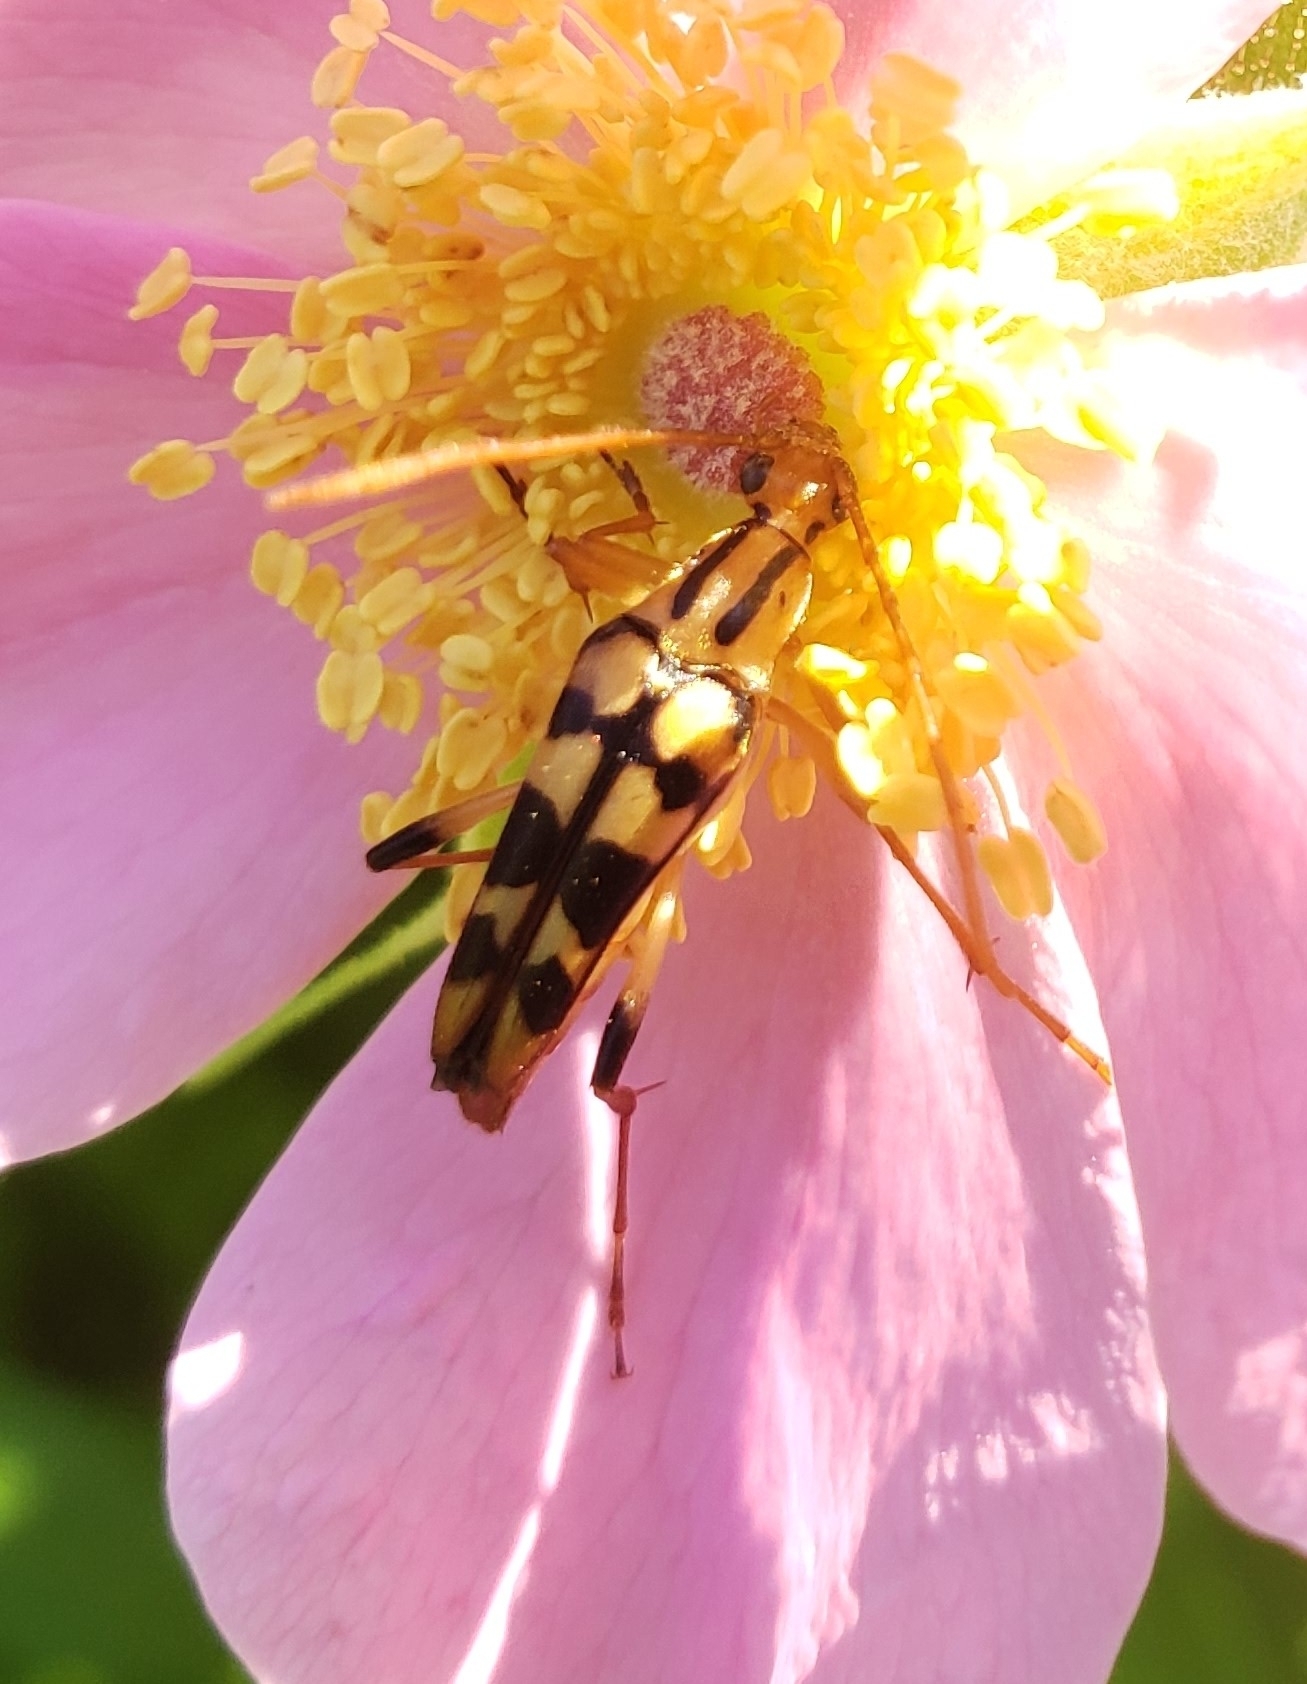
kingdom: Animalia
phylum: Arthropoda
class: Insecta
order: Coleoptera
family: Cerambycidae
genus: Strangalia
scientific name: Strangalia luteicornis
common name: Yellow-horned flower longhorn beetle
